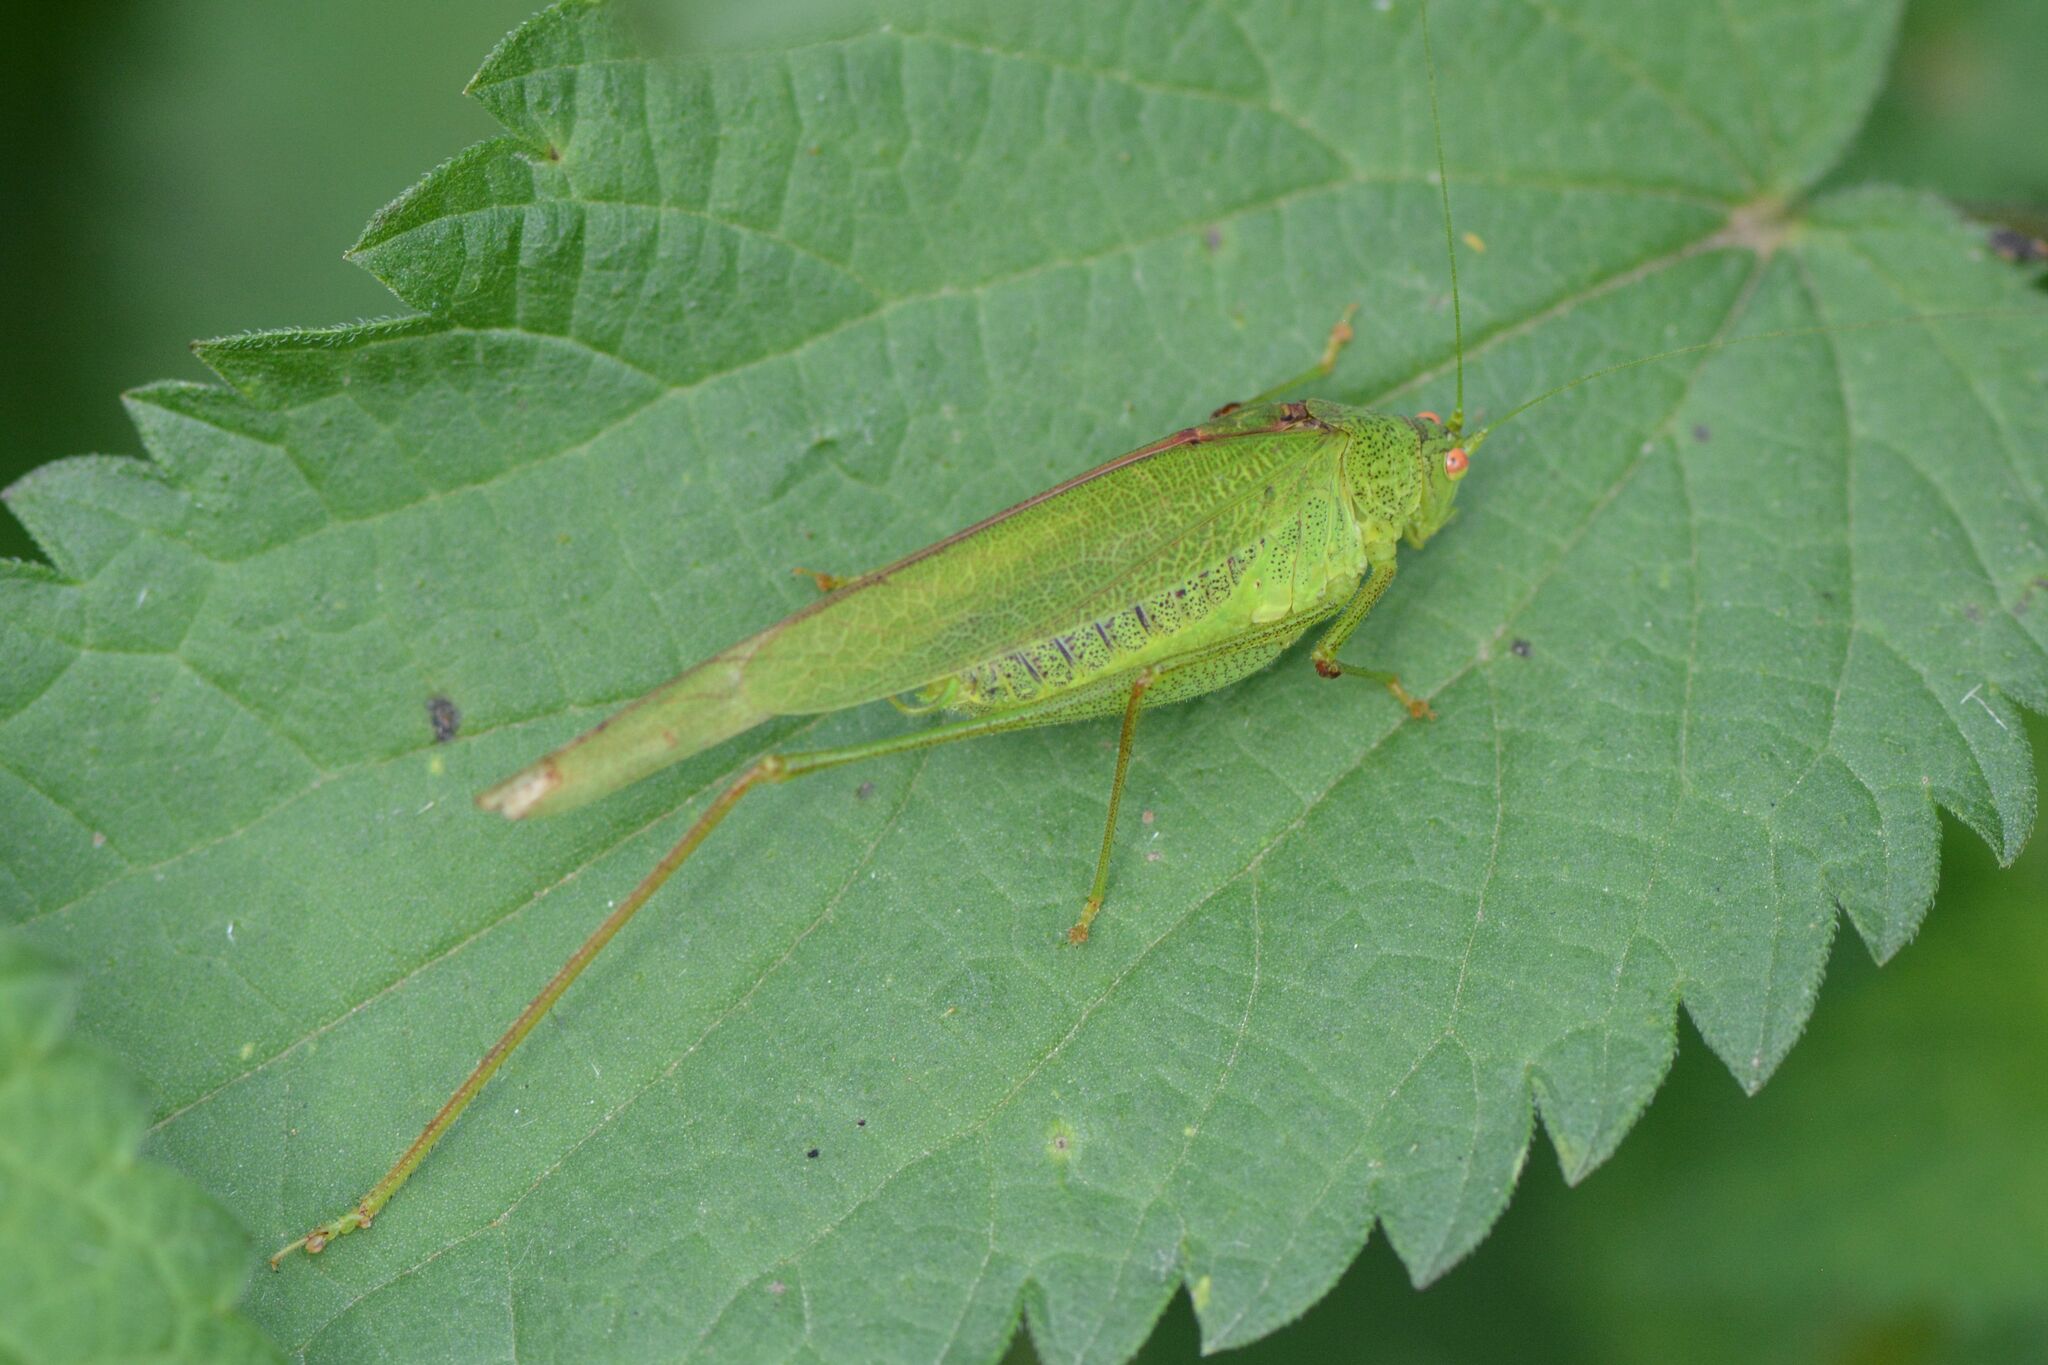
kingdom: Animalia
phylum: Arthropoda
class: Insecta
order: Orthoptera
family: Tettigoniidae
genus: Phaneroptera
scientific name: Phaneroptera nana
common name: Southern sickle bush-cricket
